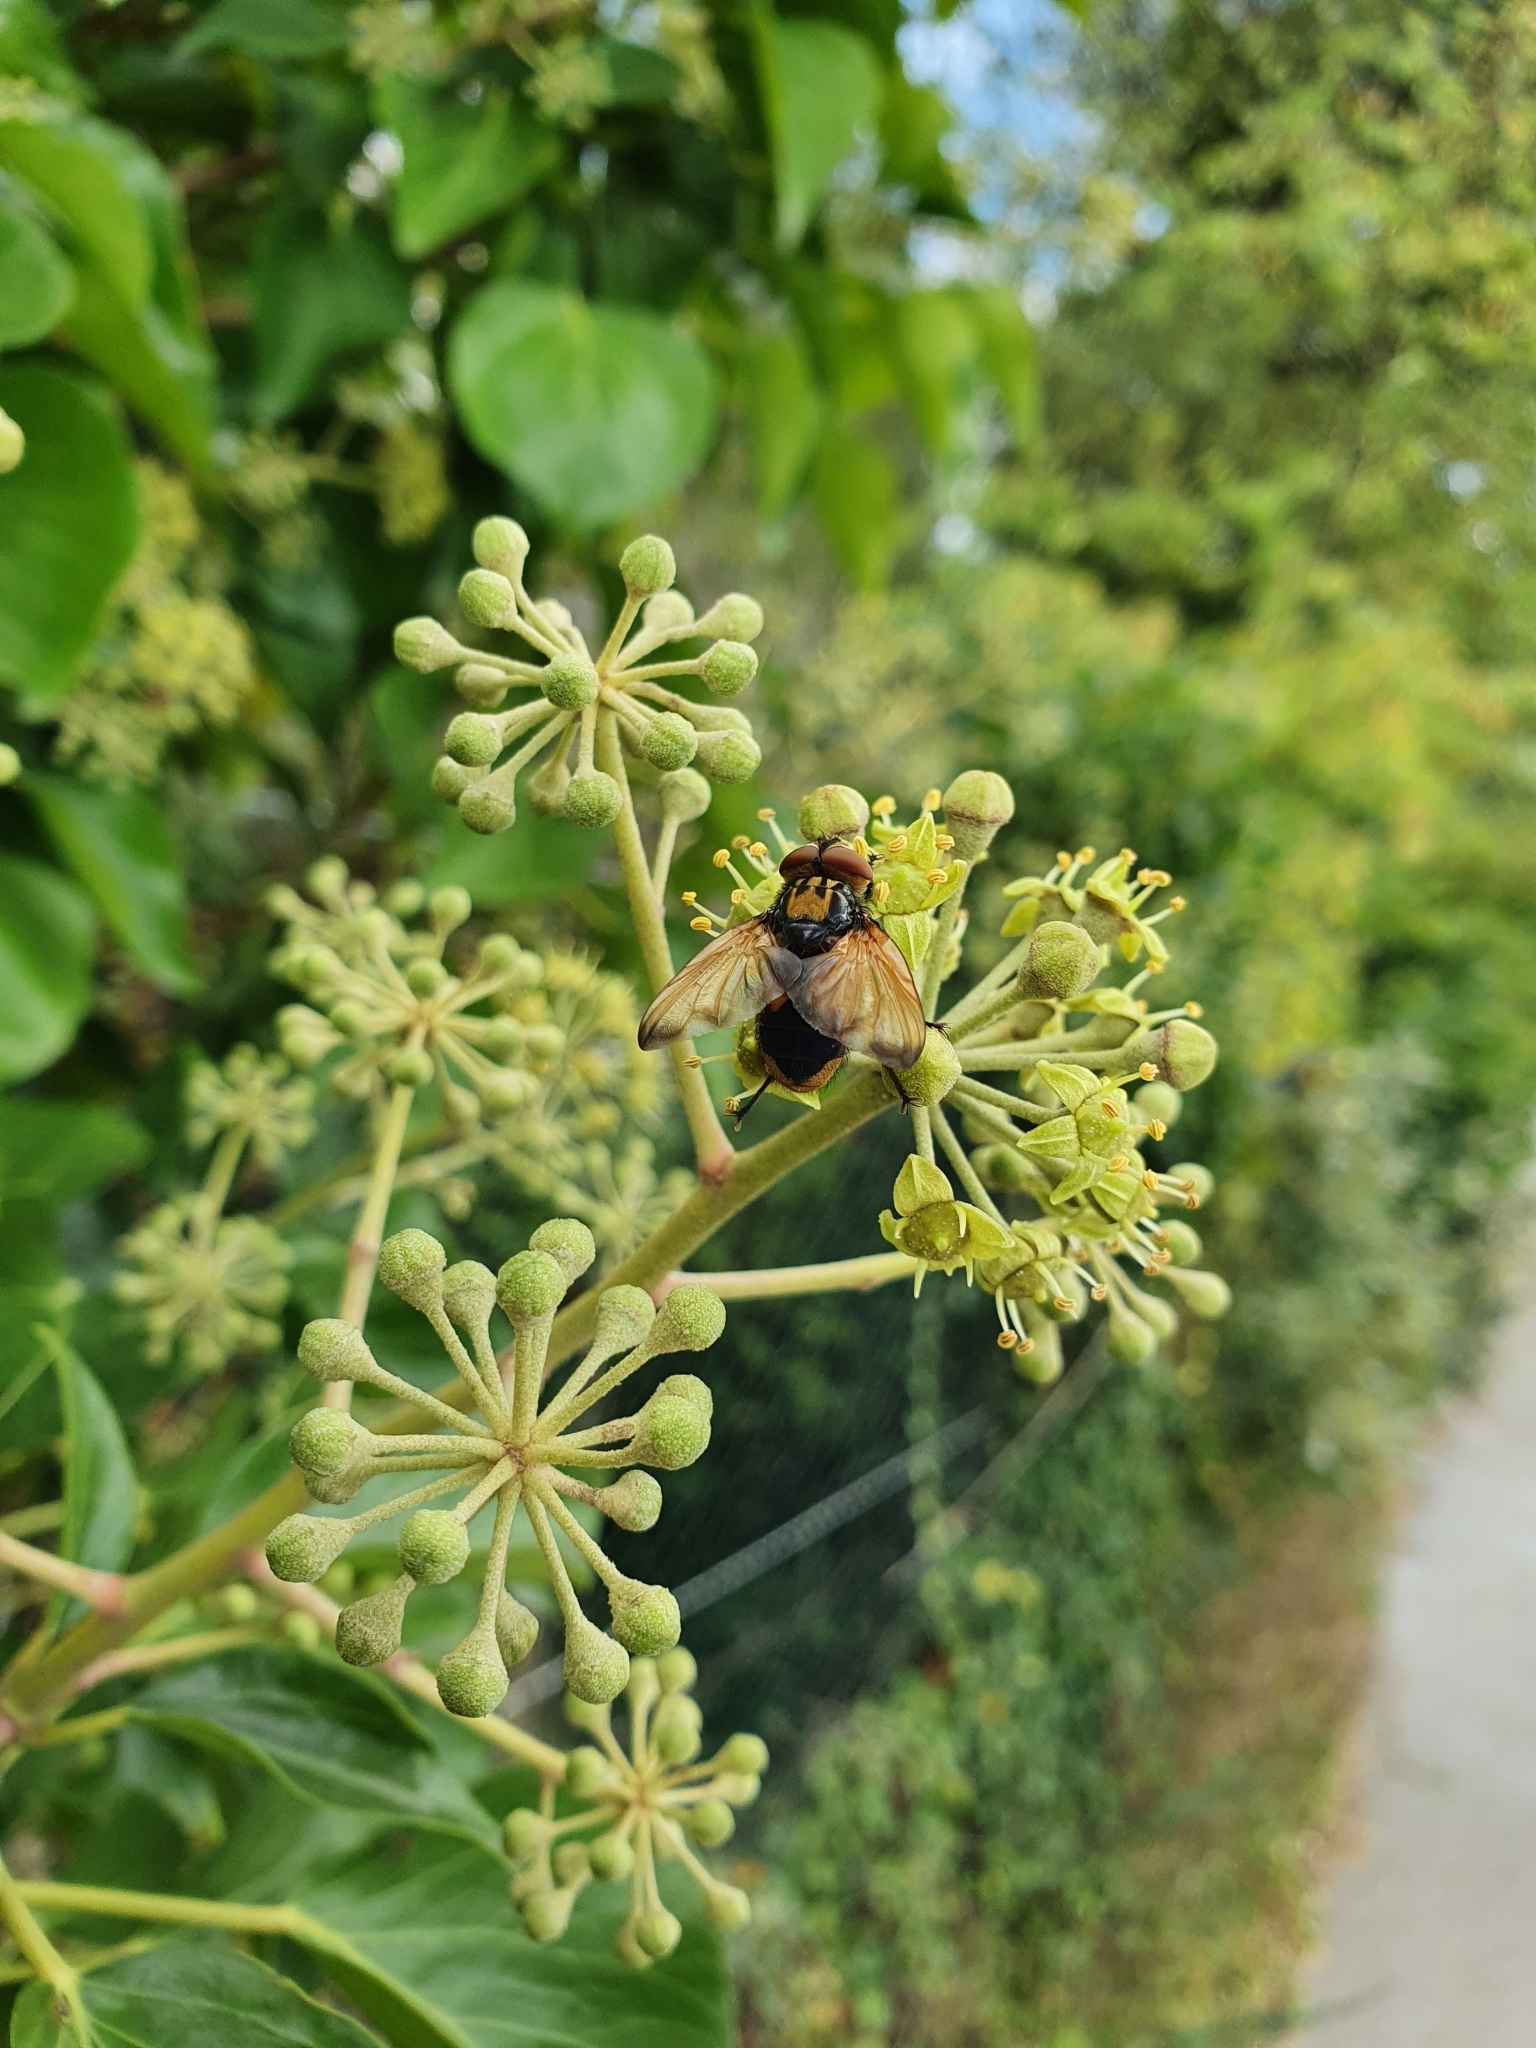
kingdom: Animalia
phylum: Arthropoda
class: Insecta
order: Diptera
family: Tachinidae
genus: Phasia
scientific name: Phasia aurigera
